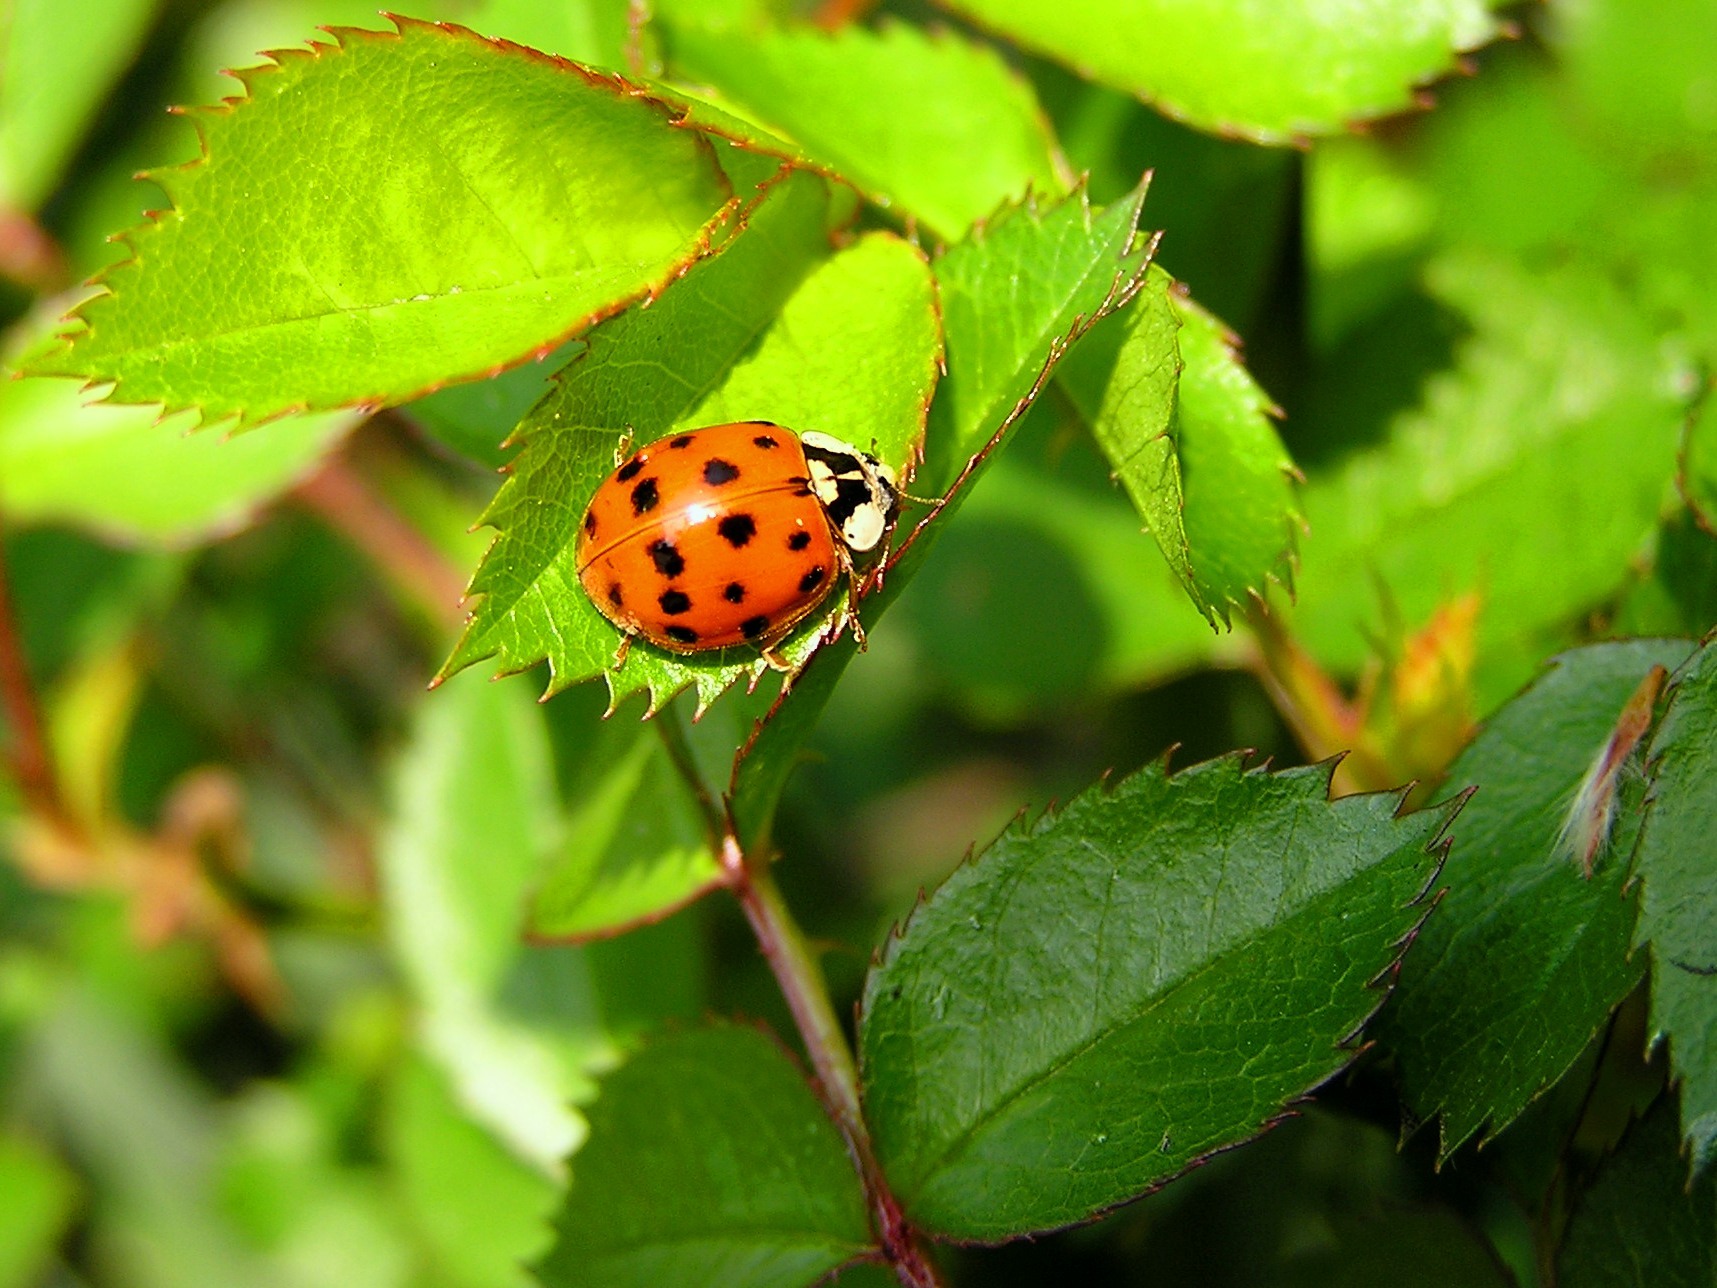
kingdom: Animalia
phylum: Arthropoda
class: Insecta
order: Coleoptera
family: Coccinellidae
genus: Harmonia
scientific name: Harmonia axyridis
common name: Harlequin ladybird
